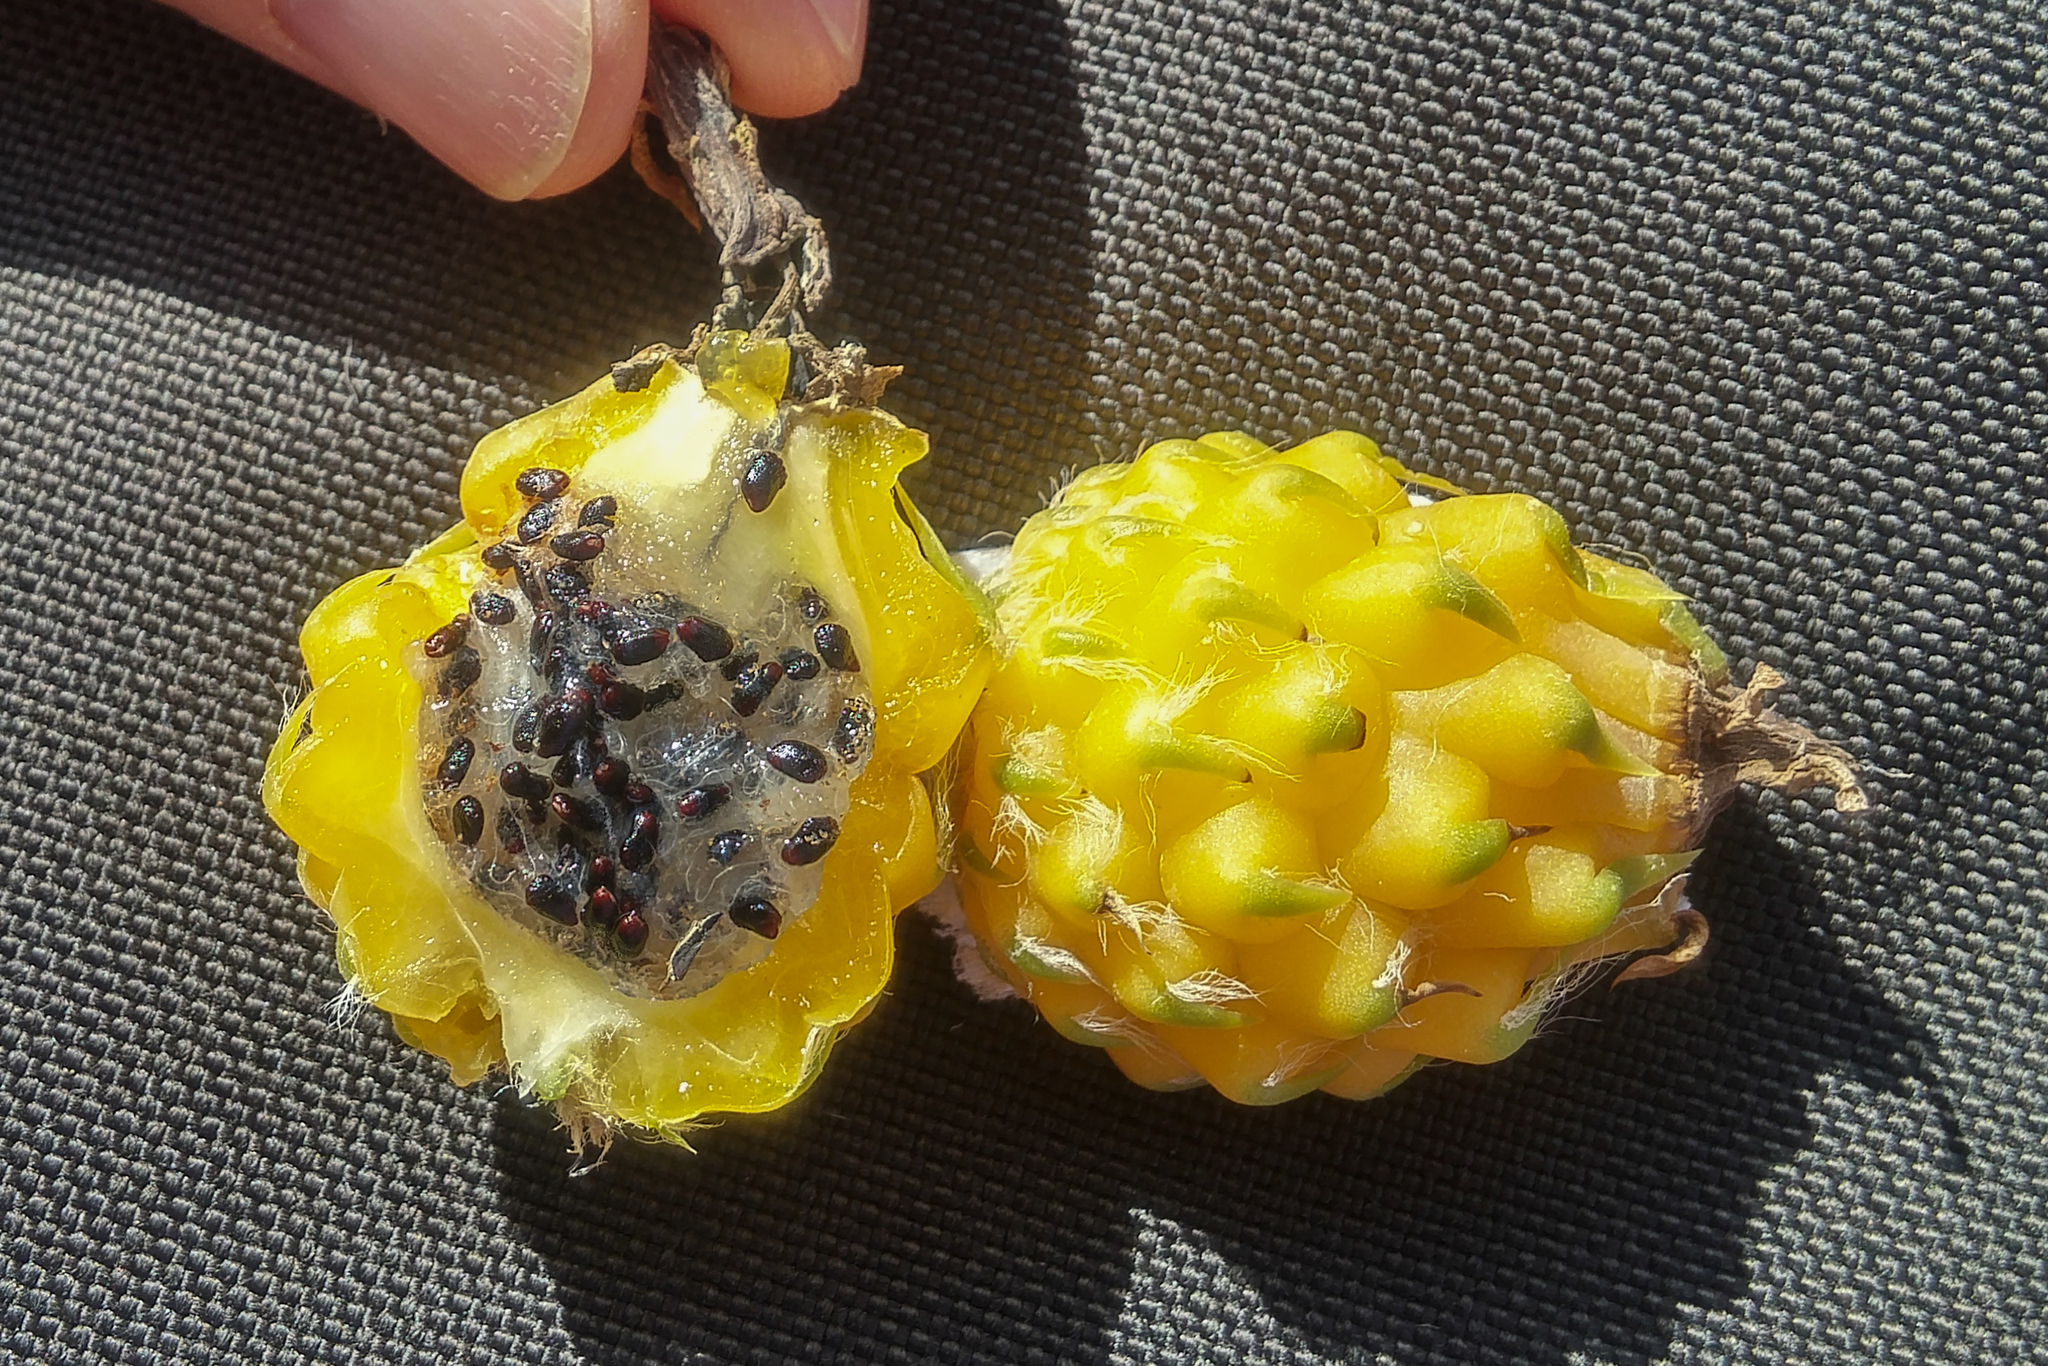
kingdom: Plantae
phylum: Tracheophyta
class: Magnoliopsida
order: Caryophyllales
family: Cactaceae
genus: Harrisia
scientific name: Harrisia divaricata
